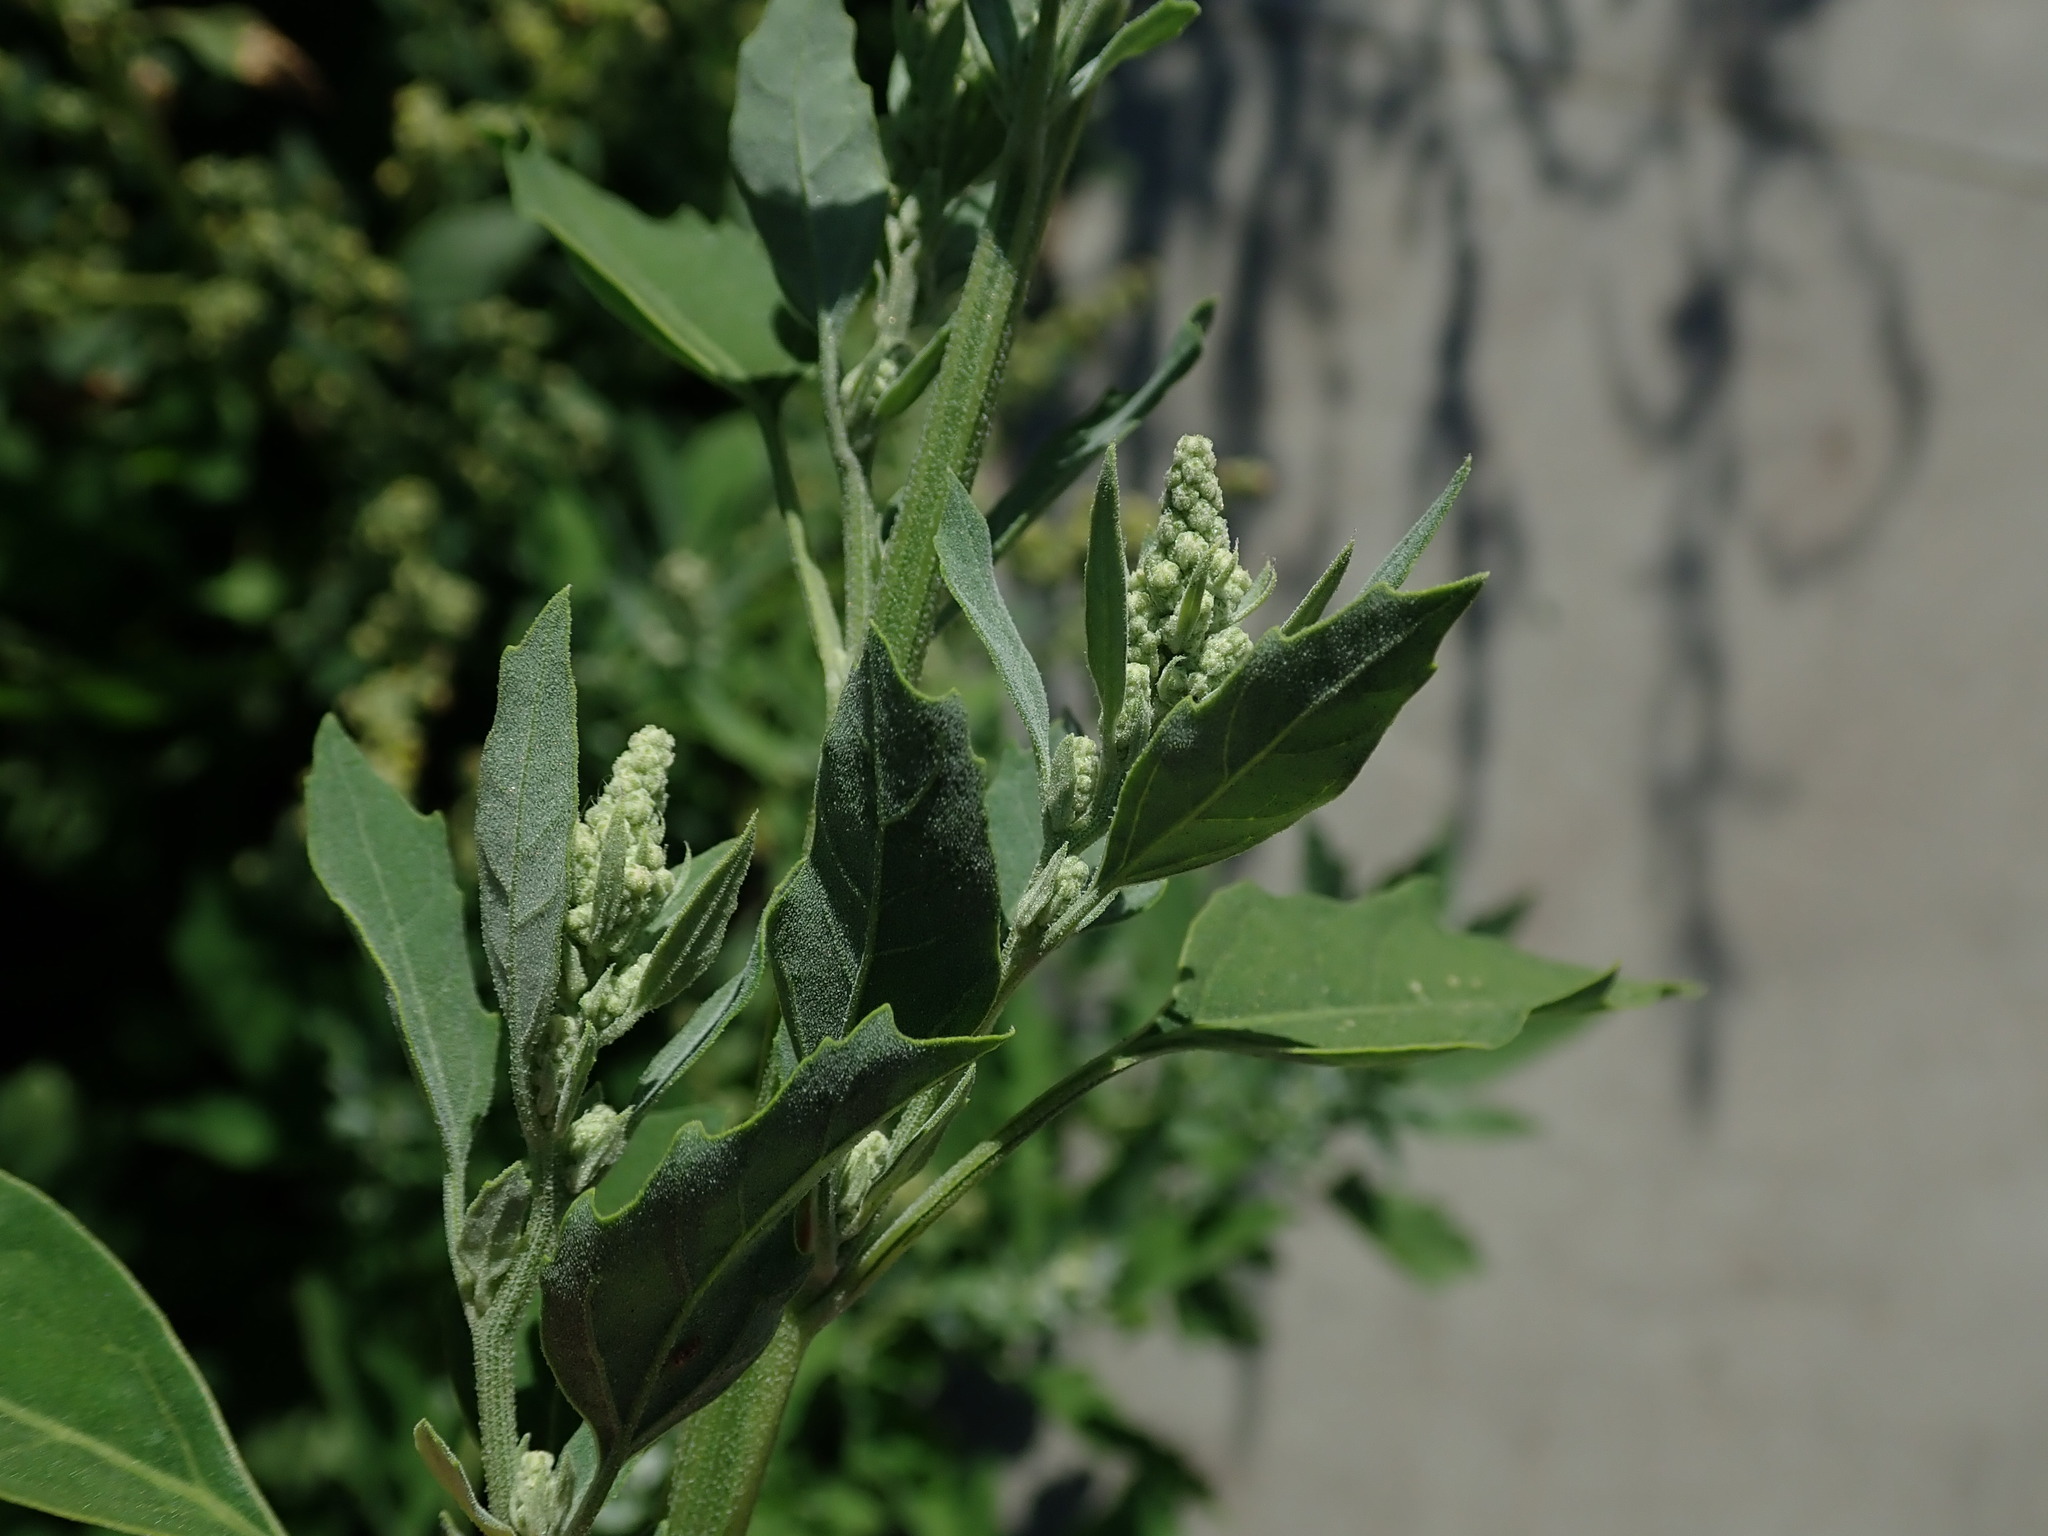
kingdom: Plantae
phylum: Tracheophyta
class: Magnoliopsida
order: Caryophyllales
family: Amaranthaceae
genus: Chenopodium
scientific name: Chenopodium album
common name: Fat-hen
